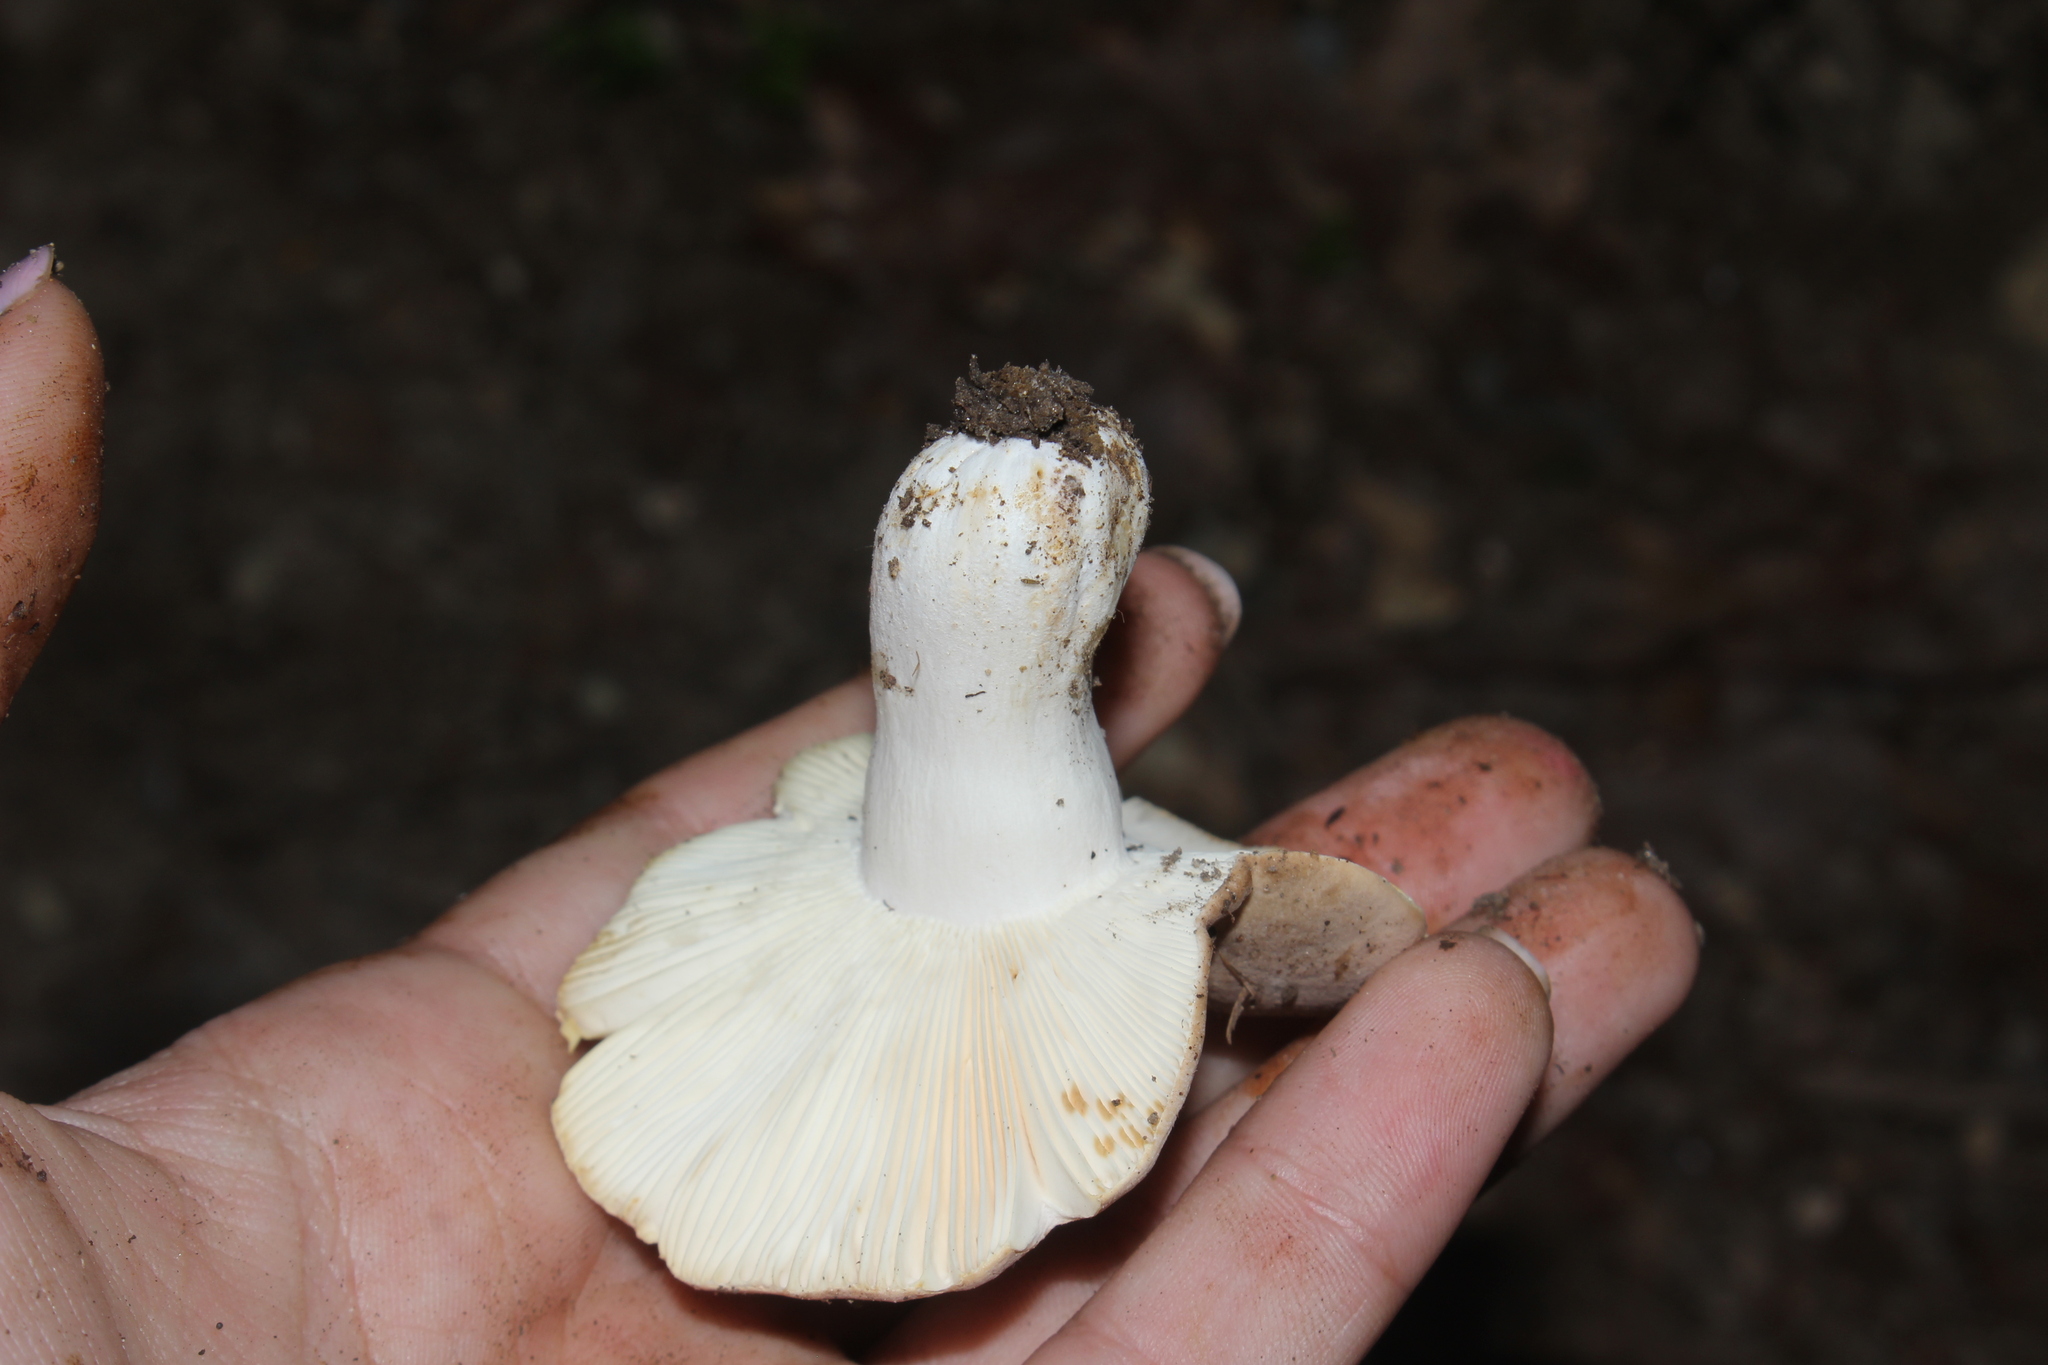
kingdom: Fungi
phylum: Basidiomycota
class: Agaricomycetes
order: Russulales
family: Russulaceae
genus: Russula
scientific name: Russula
